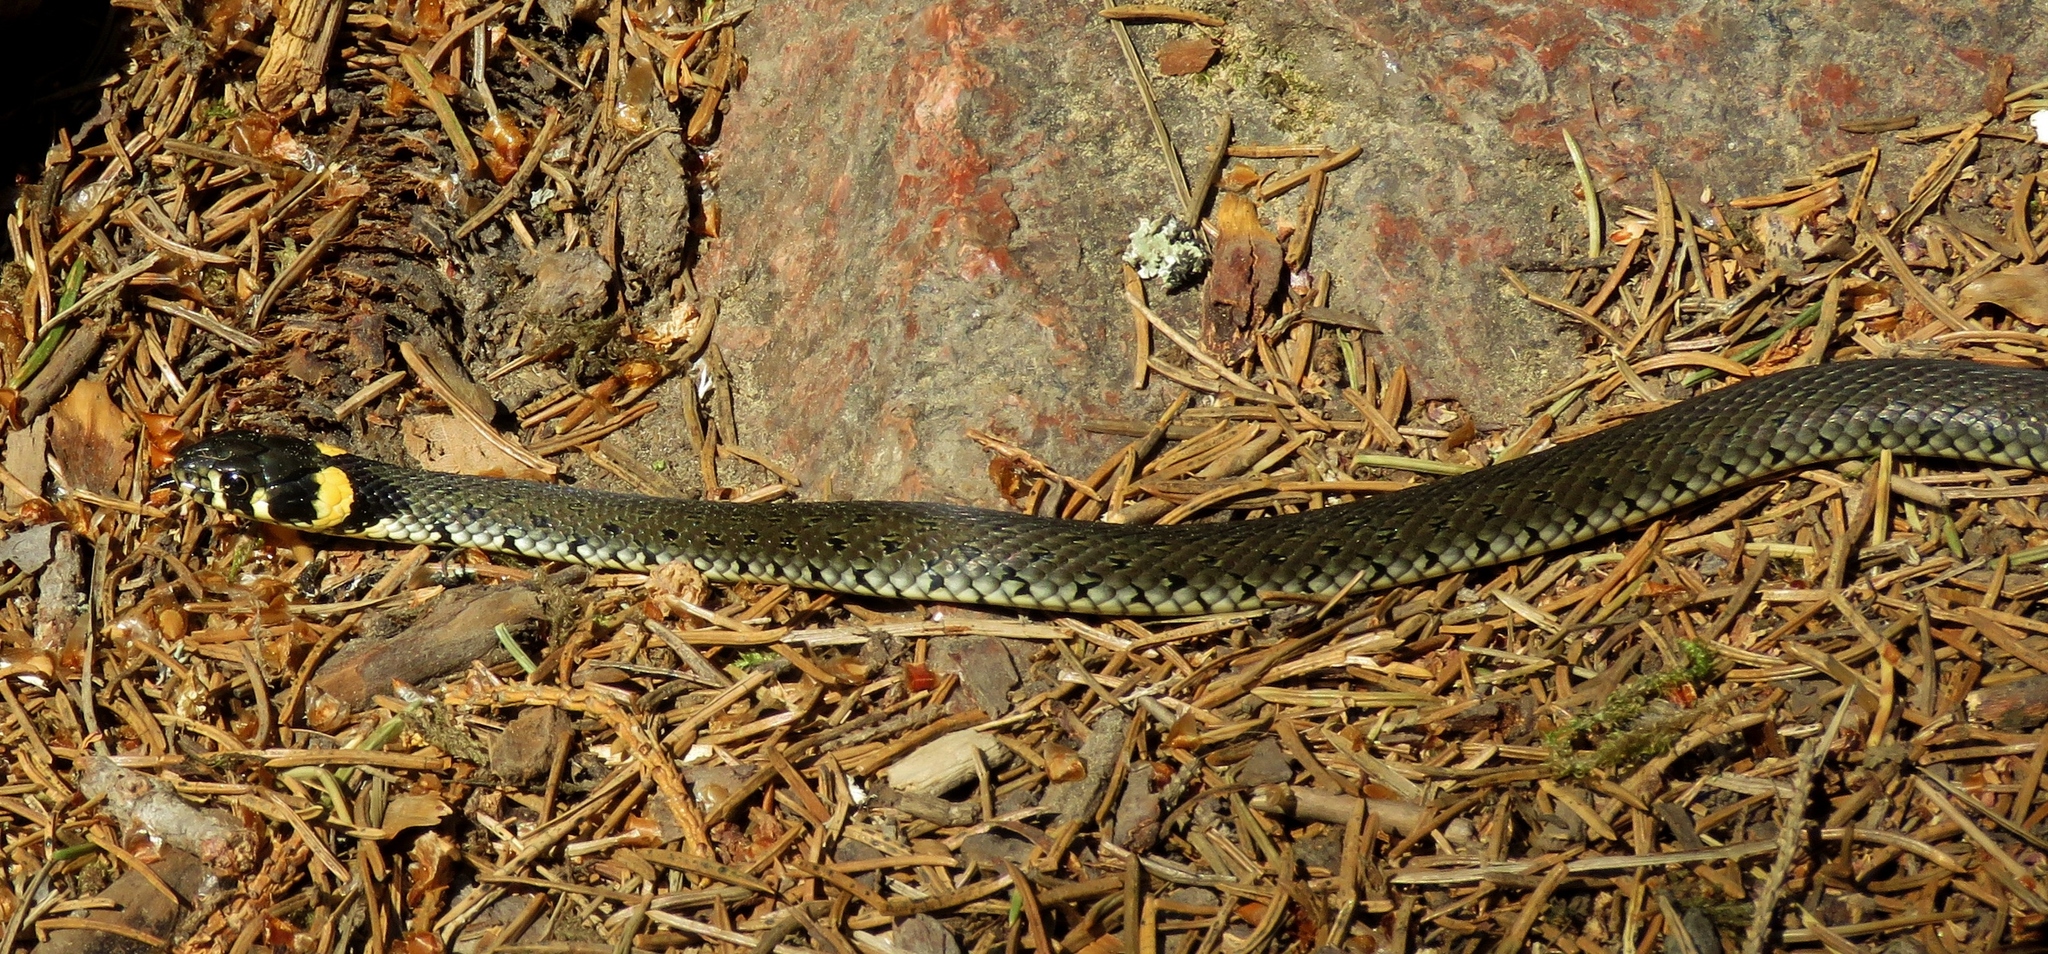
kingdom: Animalia
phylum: Chordata
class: Squamata
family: Colubridae
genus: Natrix
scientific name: Natrix natrix
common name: Grass snake
